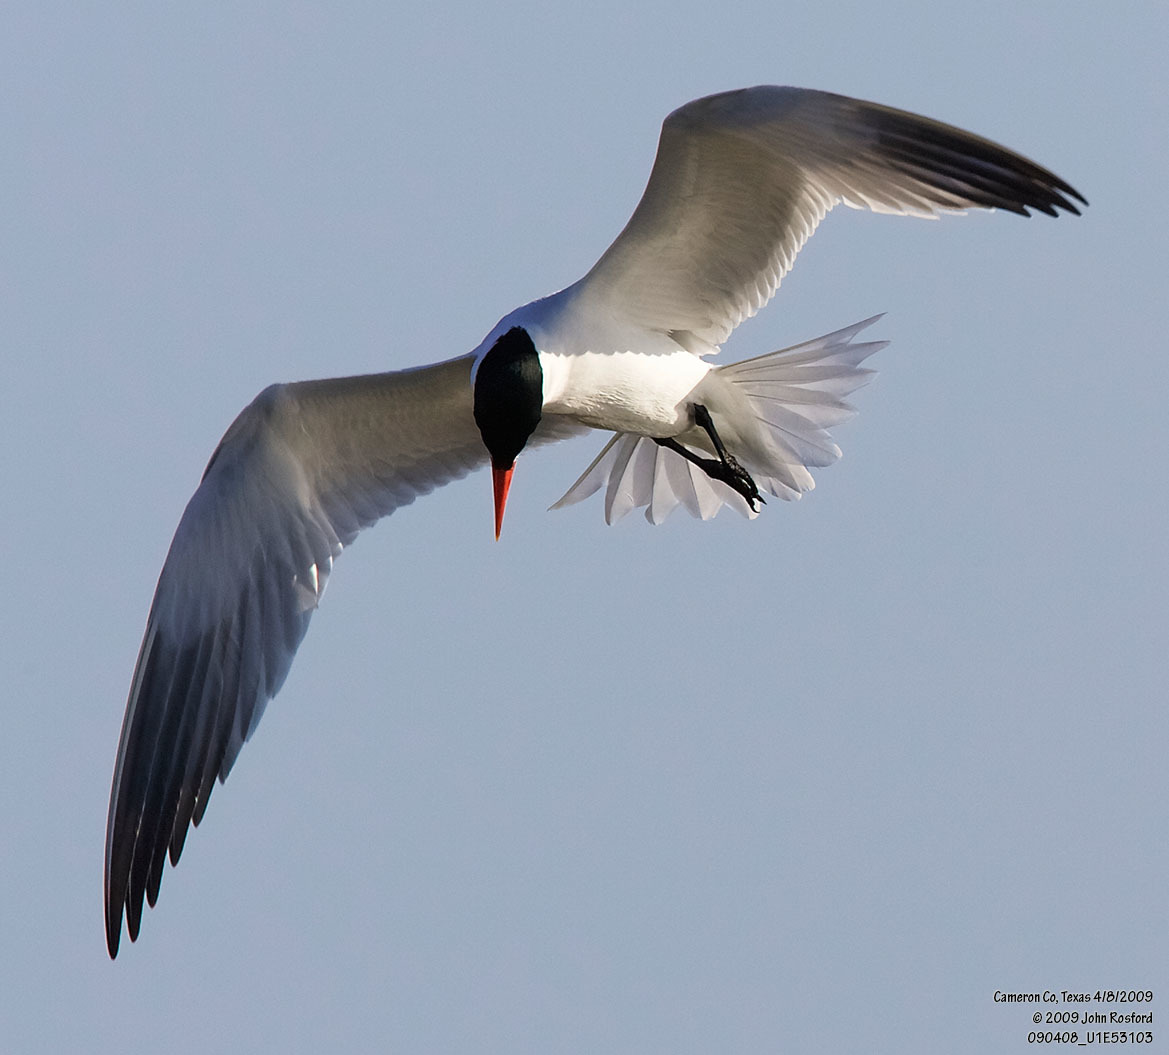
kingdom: Animalia
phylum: Chordata
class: Aves
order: Charadriiformes
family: Laridae
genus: Hydroprogne
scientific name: Hydroprogne caspia
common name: Caspian tern
